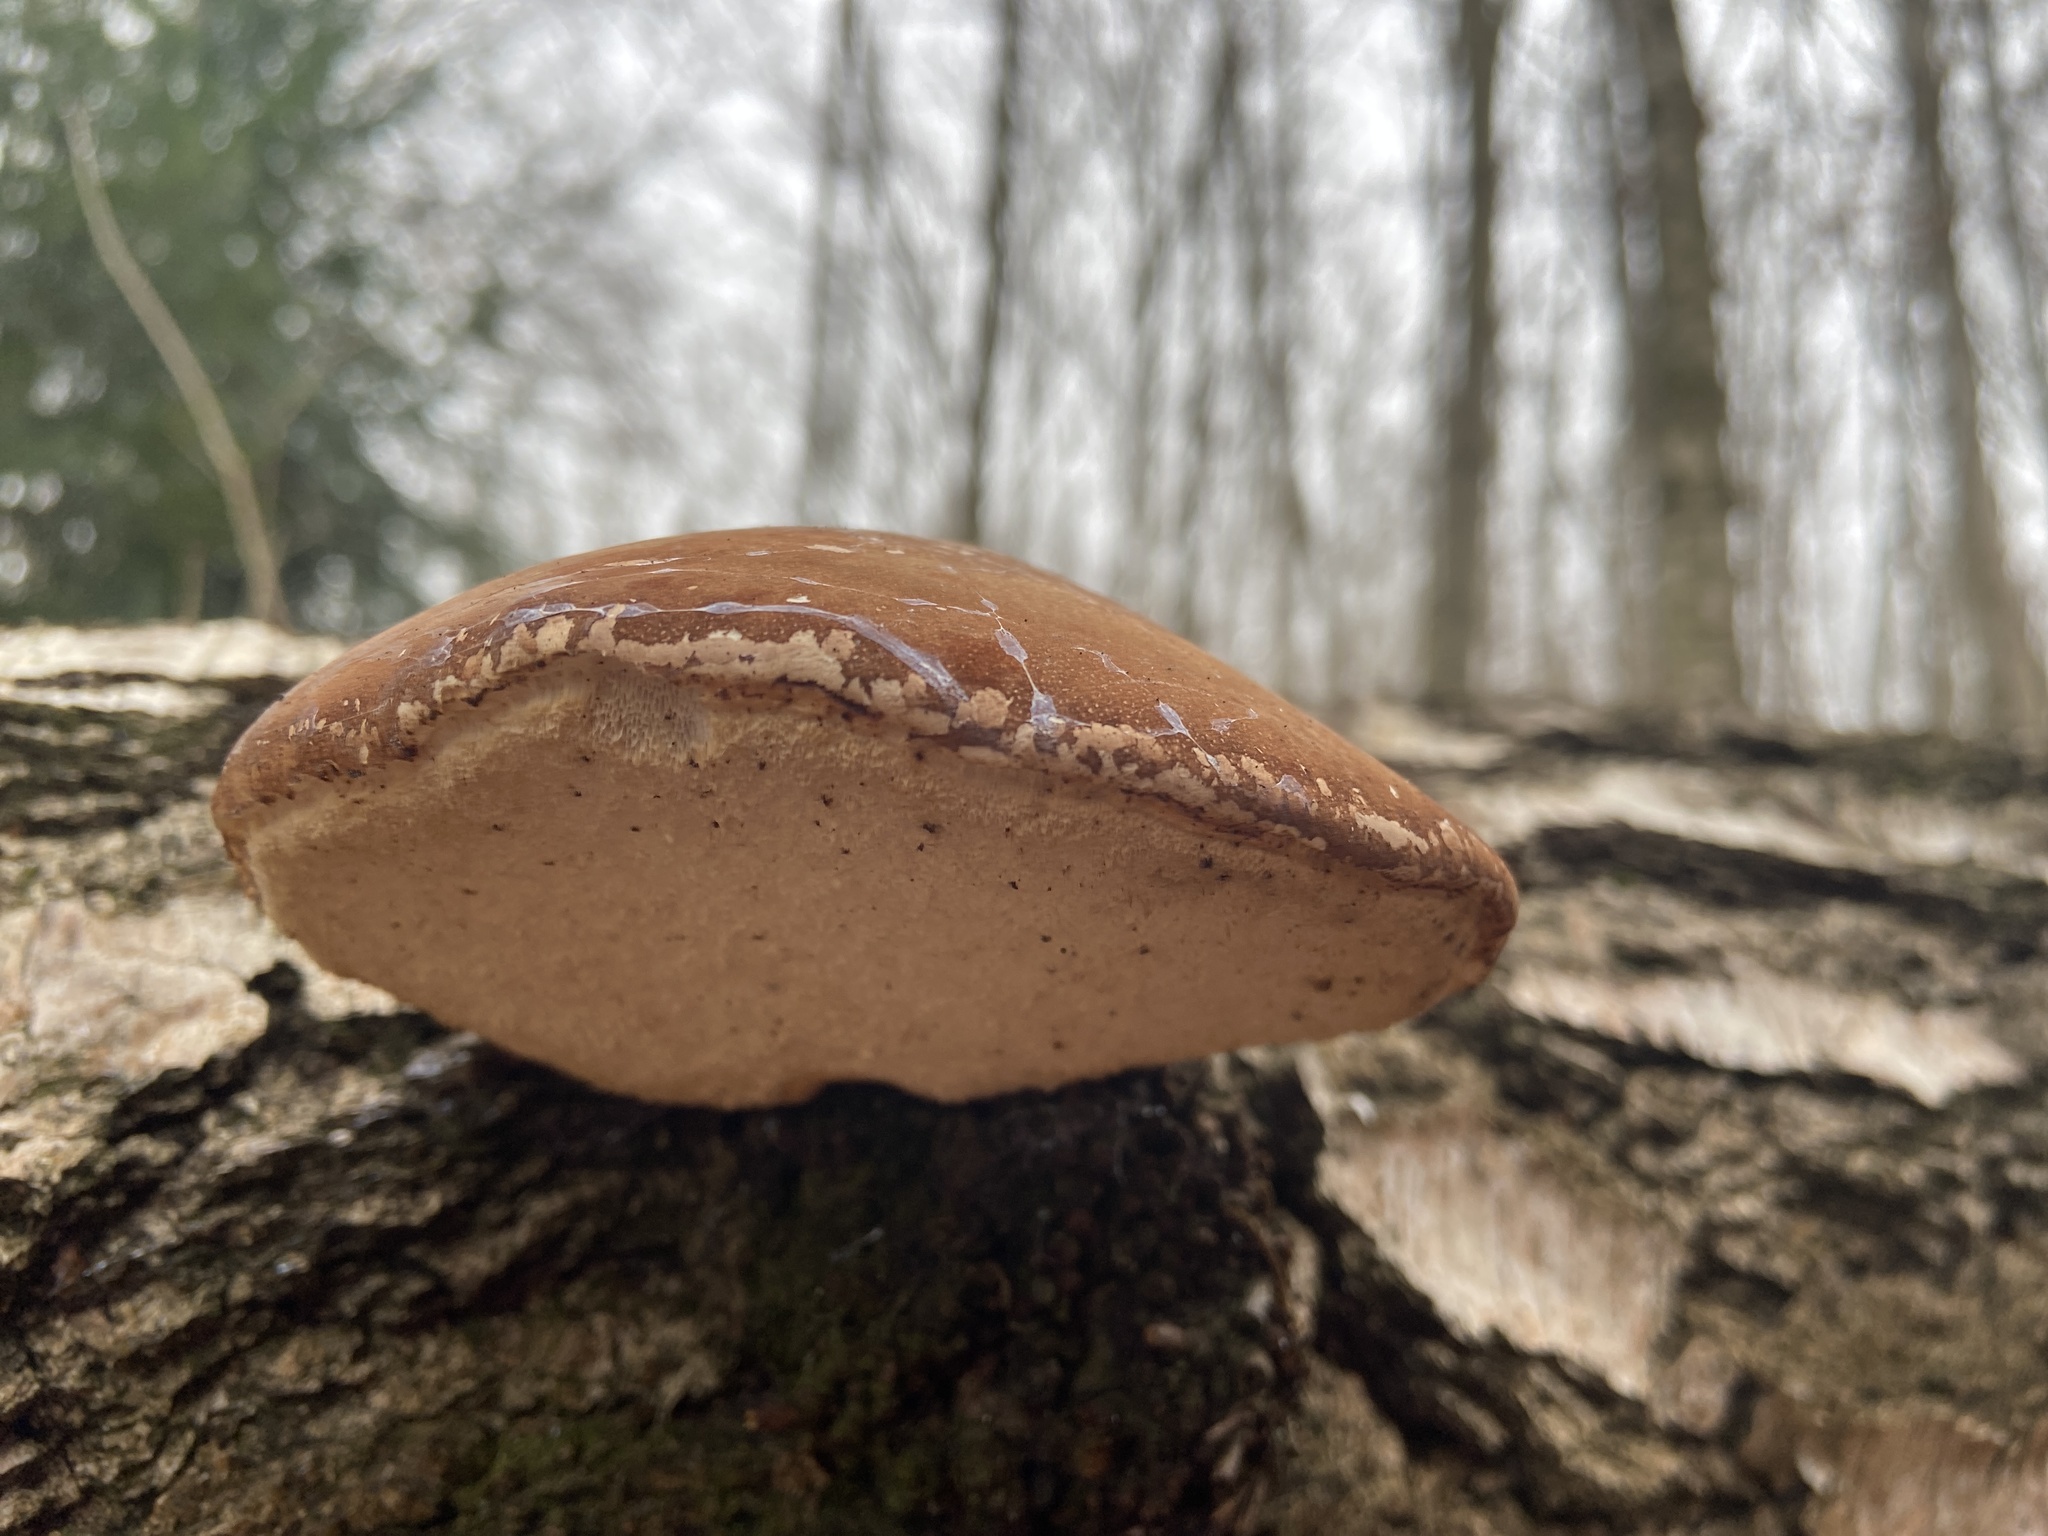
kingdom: Fungi
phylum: Basidiomycota
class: Agaricomycetes
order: Polyporales
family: Fomitopsidaceae
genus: Fomitopsis
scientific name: Fomitopsis betulina
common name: Birch polypore
